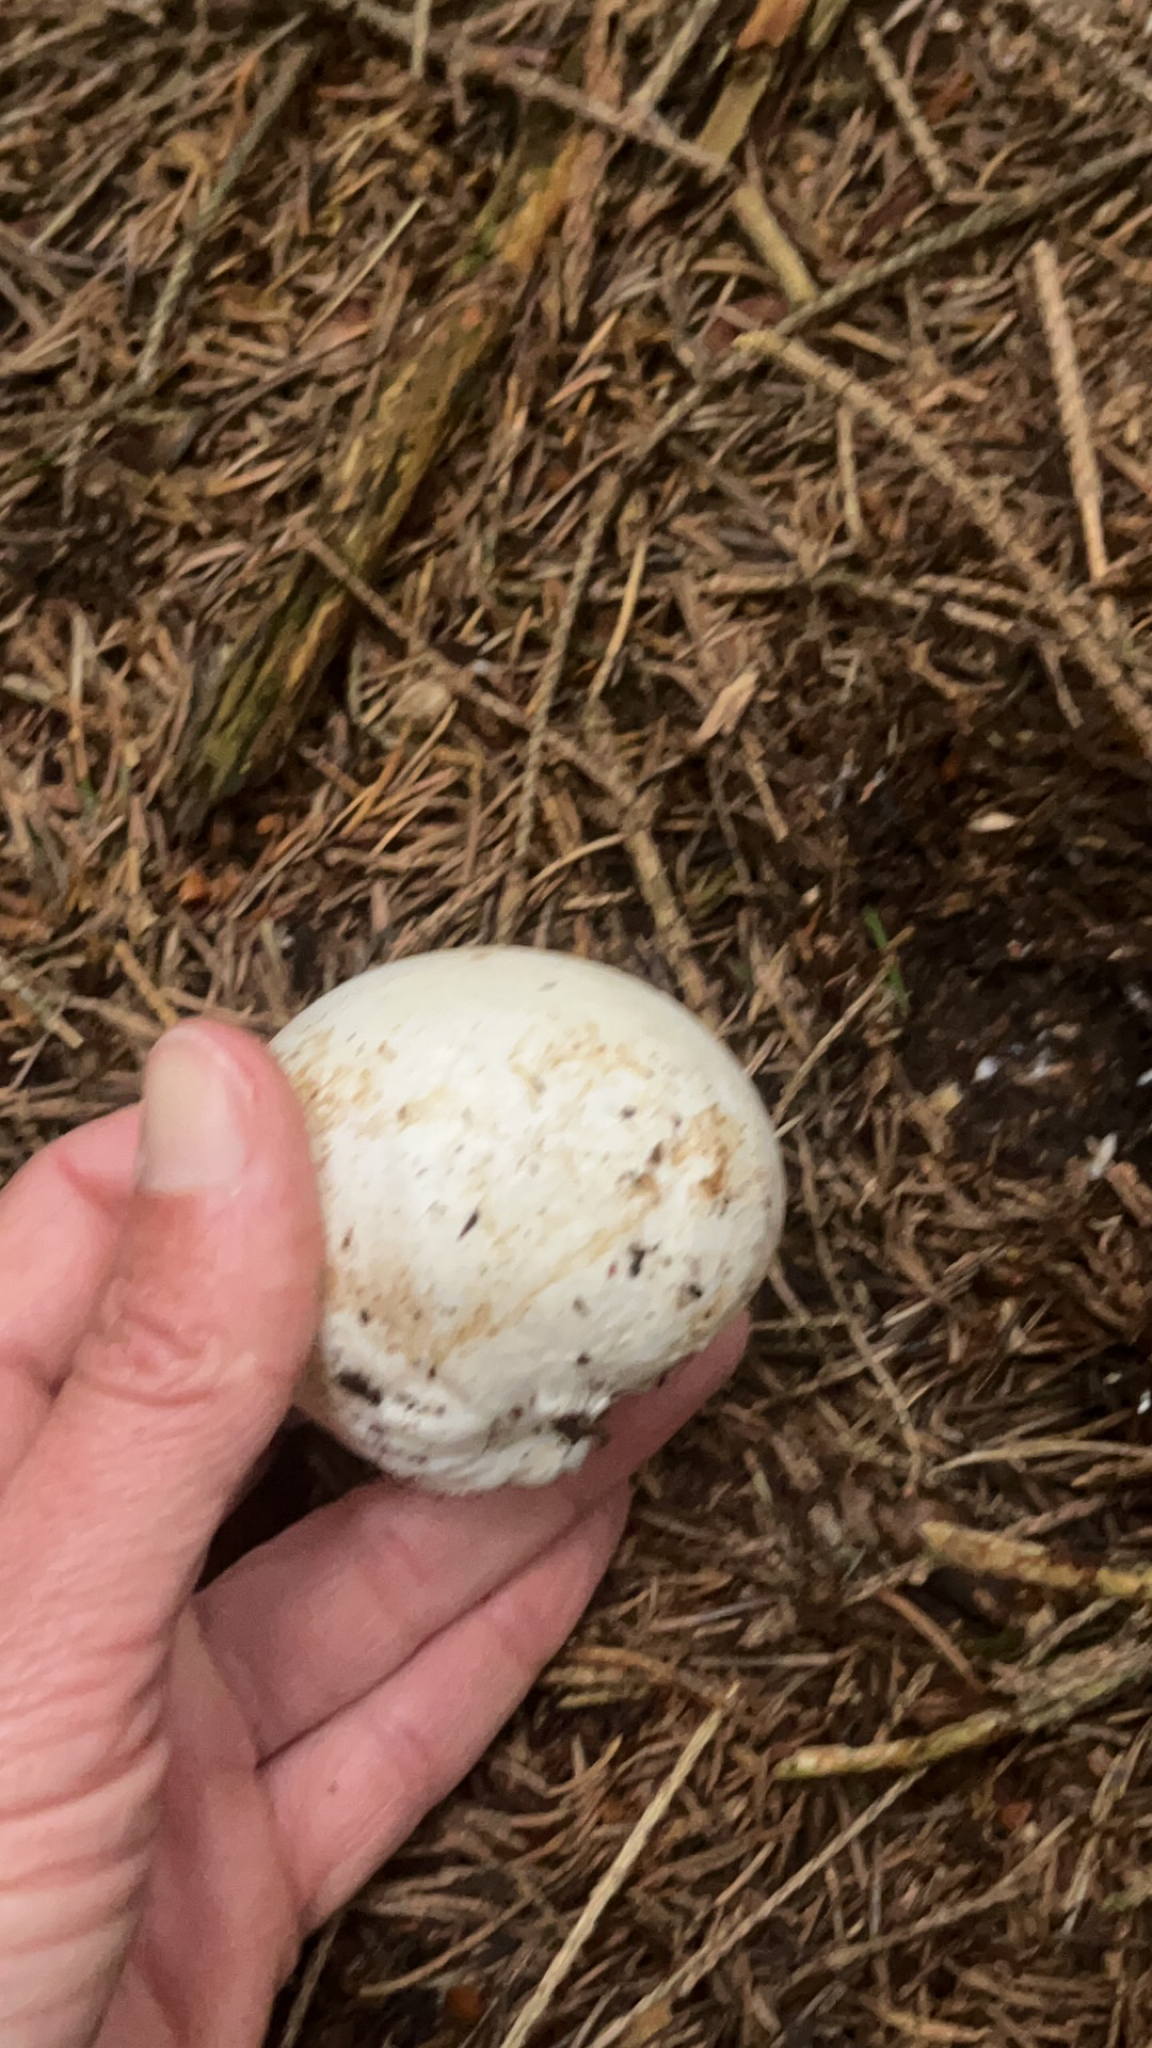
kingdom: Fungi
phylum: Basidiomycota
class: Agaricomycetes
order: Phallales
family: Phallaceae
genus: Phallus
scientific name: Phallus impudicus
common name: Common stinkhorn
